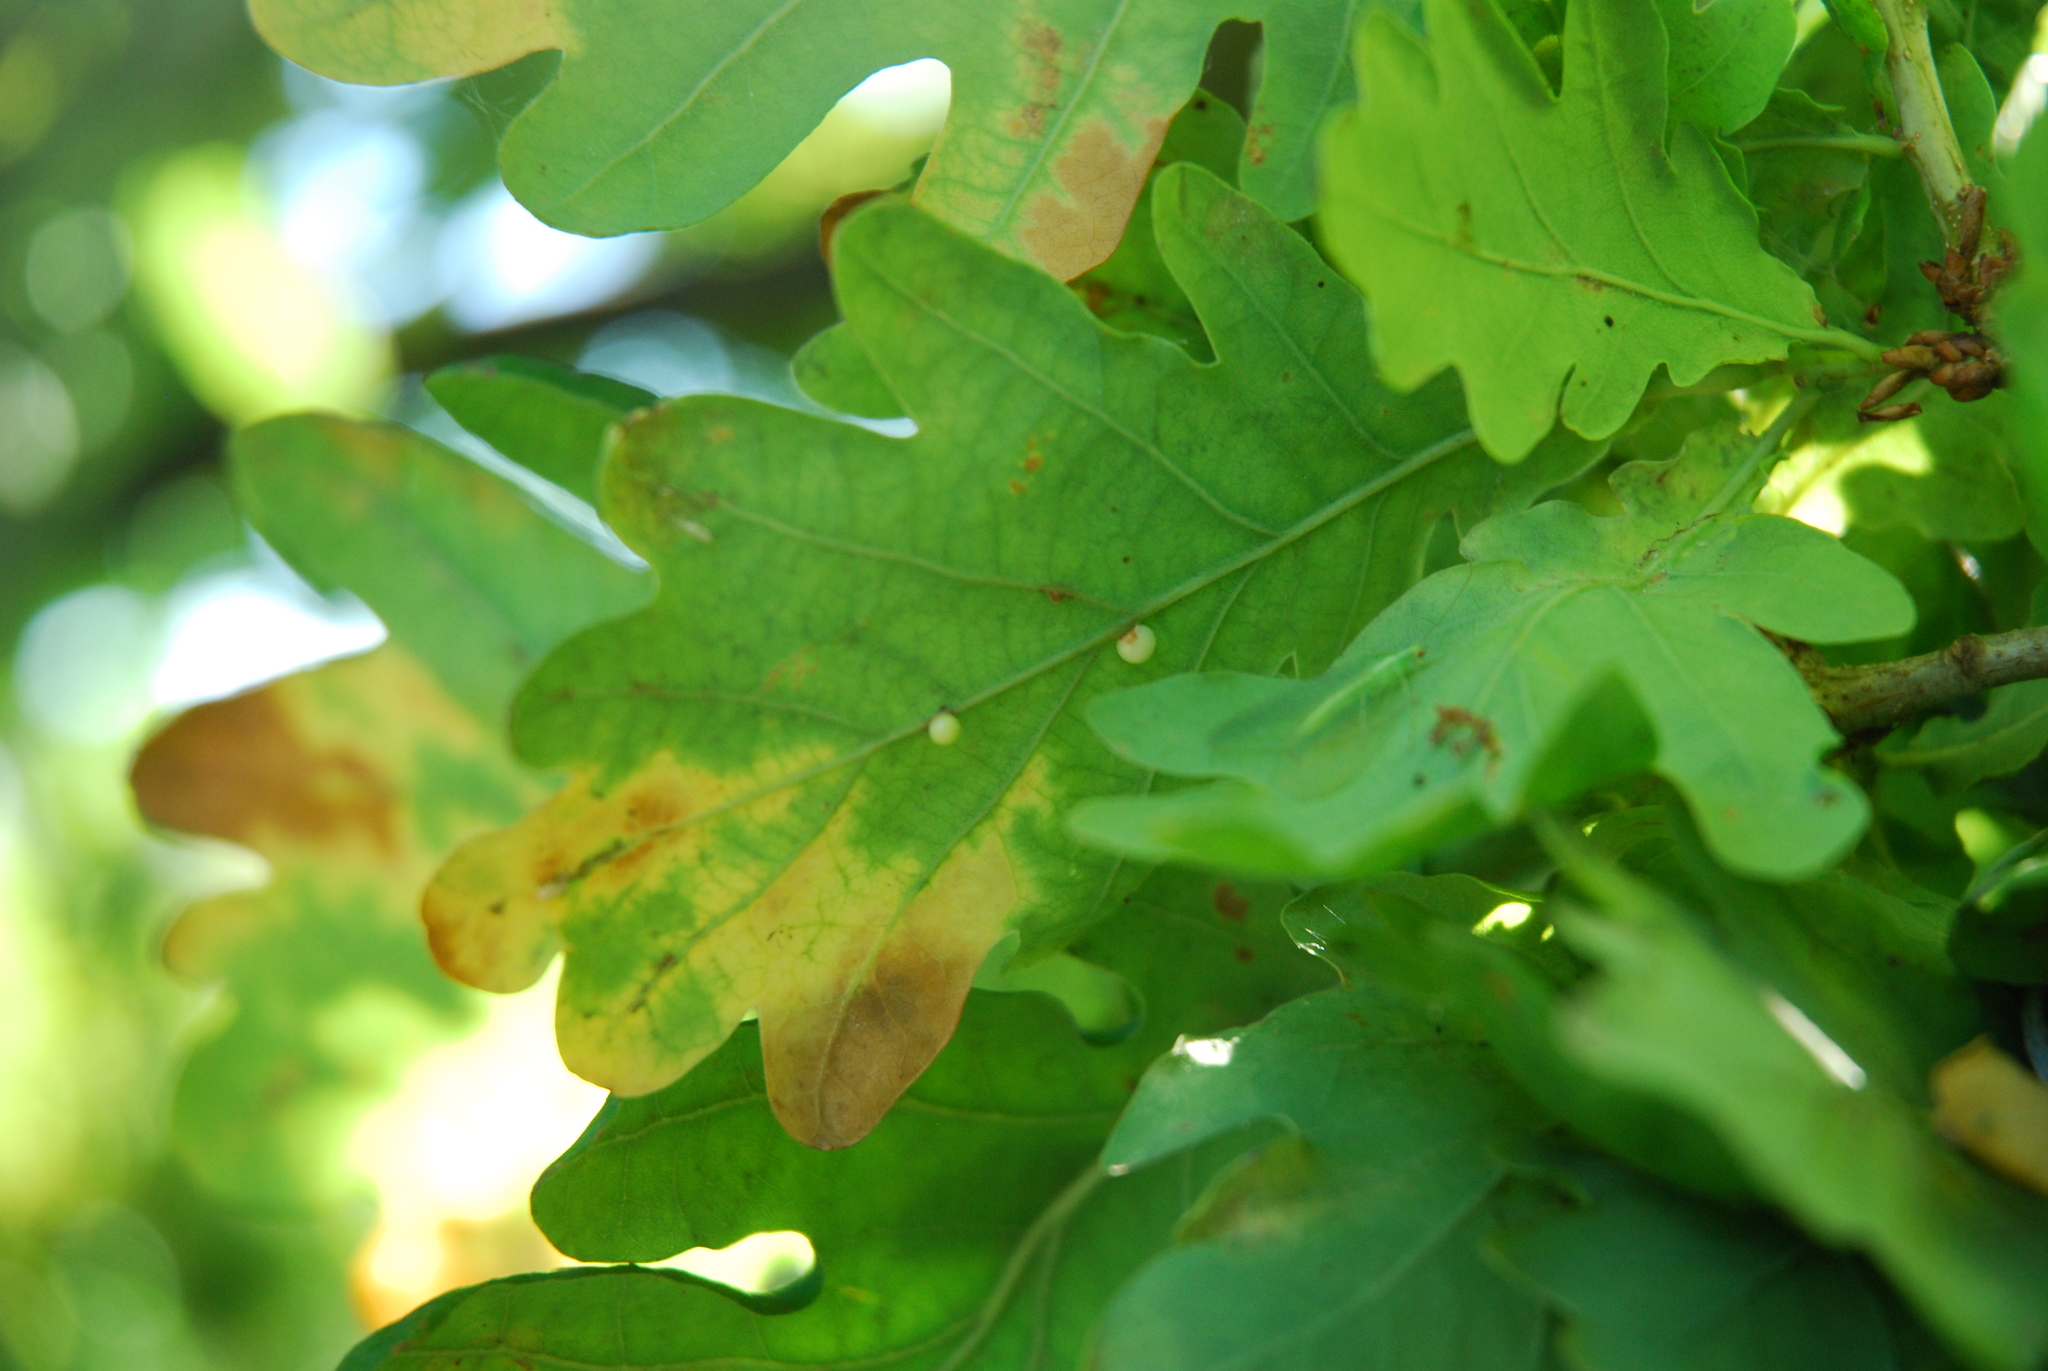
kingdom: Animalia
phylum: Arthropoda
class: Insecta
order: Hymenoptera
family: Cynipidae
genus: Neuroterus
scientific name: Neuroterus anthracinus
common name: Oyster gall
